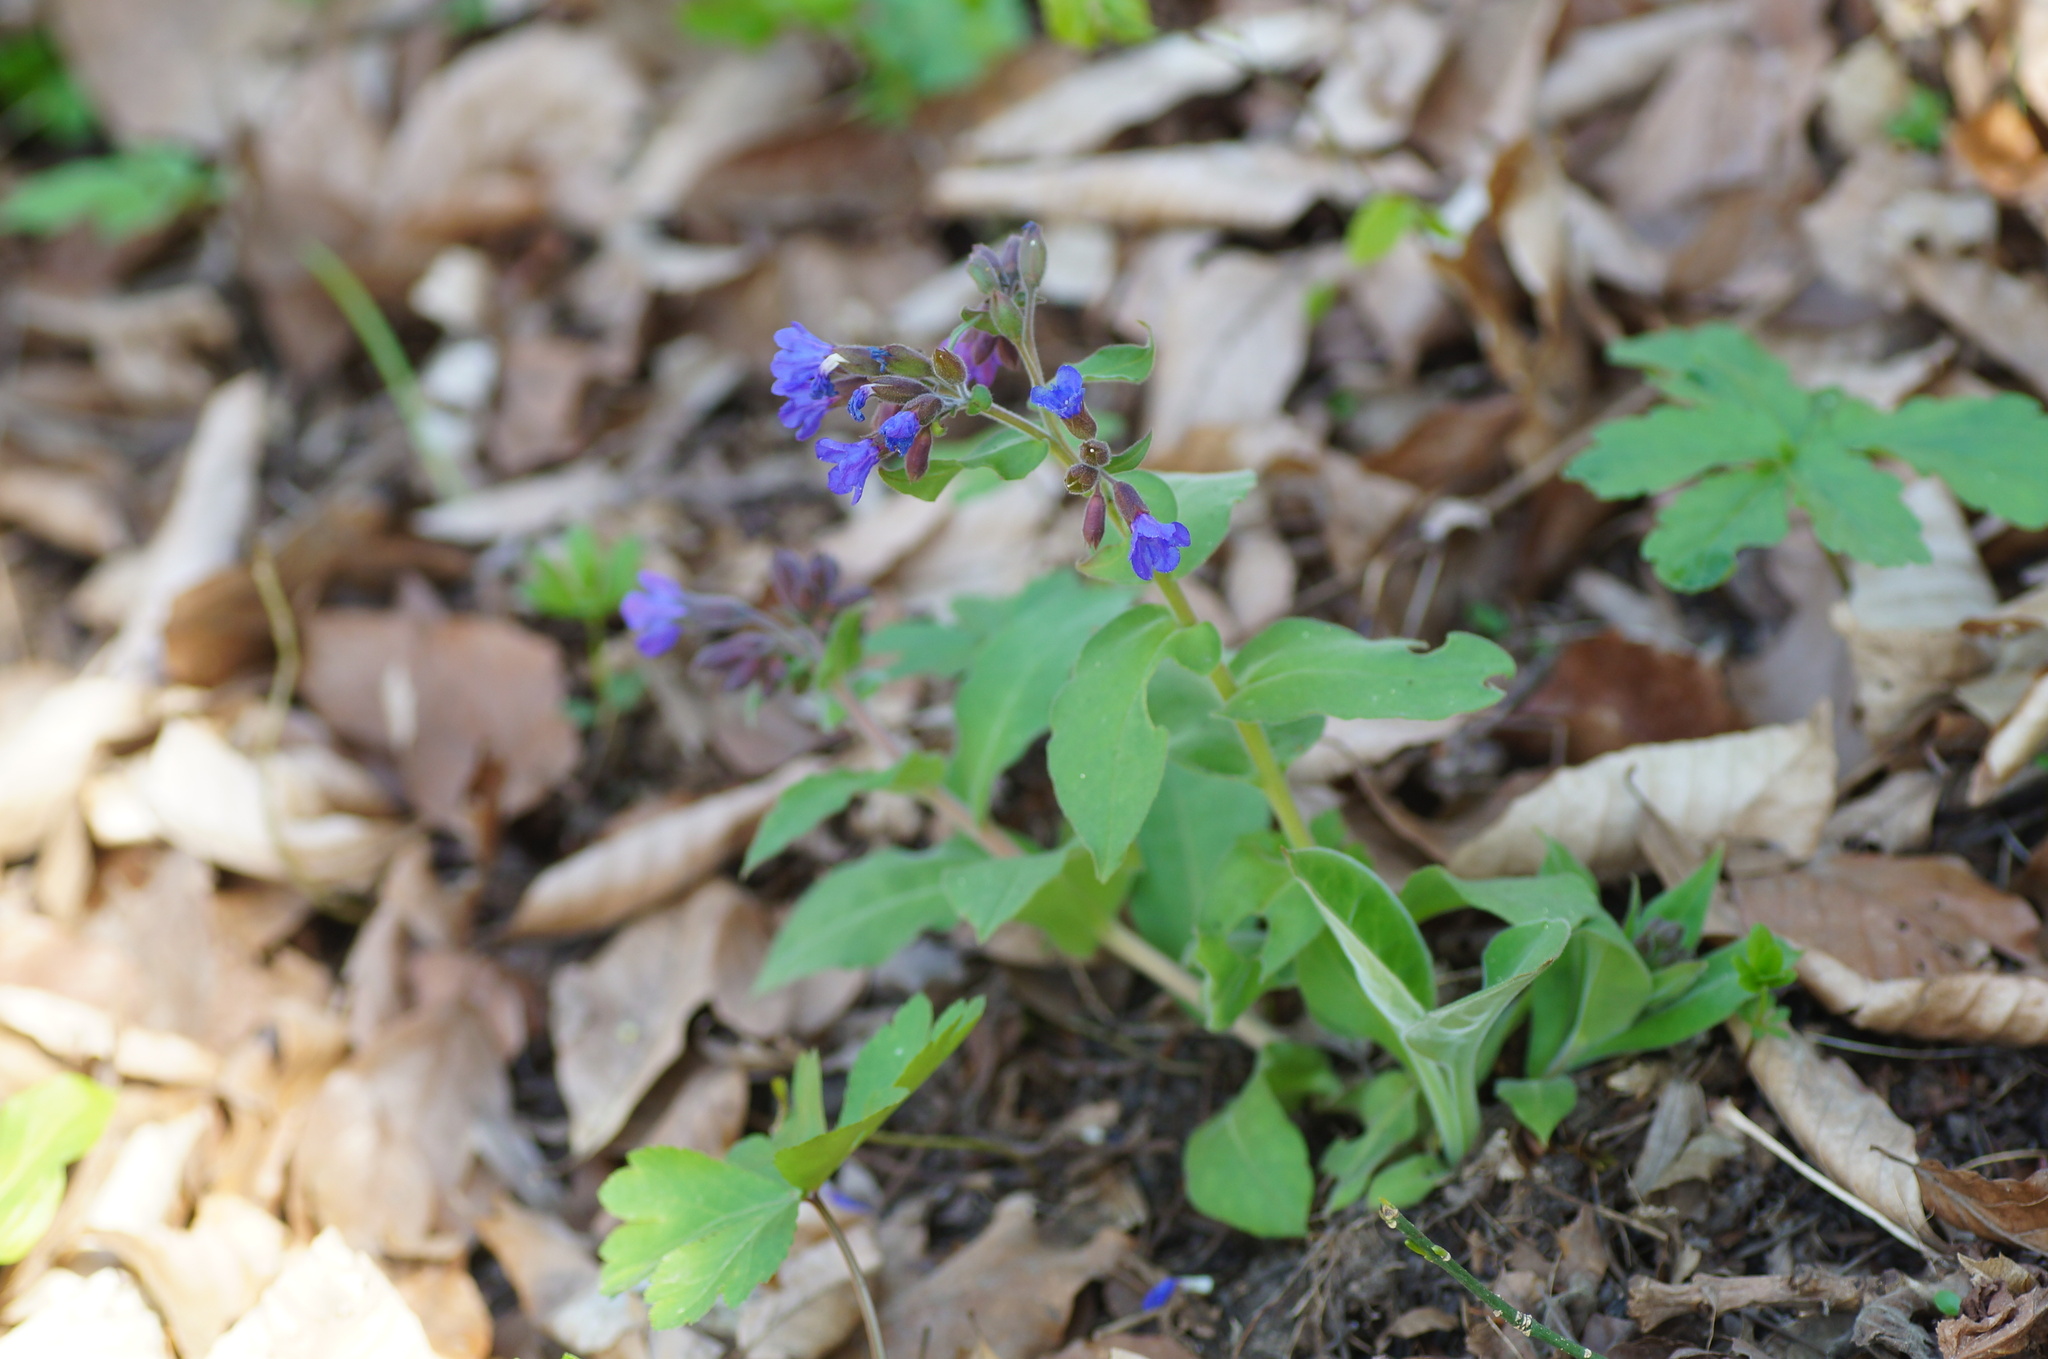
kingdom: Plantae
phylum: Tracheophyta
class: Magnoliopsida
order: Boraginales
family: Boraginaceae
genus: Pulmonaria
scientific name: Pulmonaria mollis
